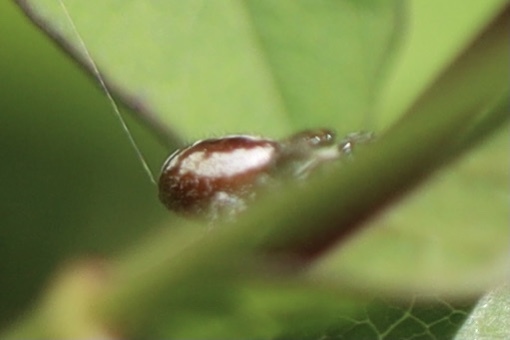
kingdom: Animalia
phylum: Arthropoda
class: Arachnida
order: Araneae
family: Salticidae
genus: Metaphidippus
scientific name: Metaphidippus manni
